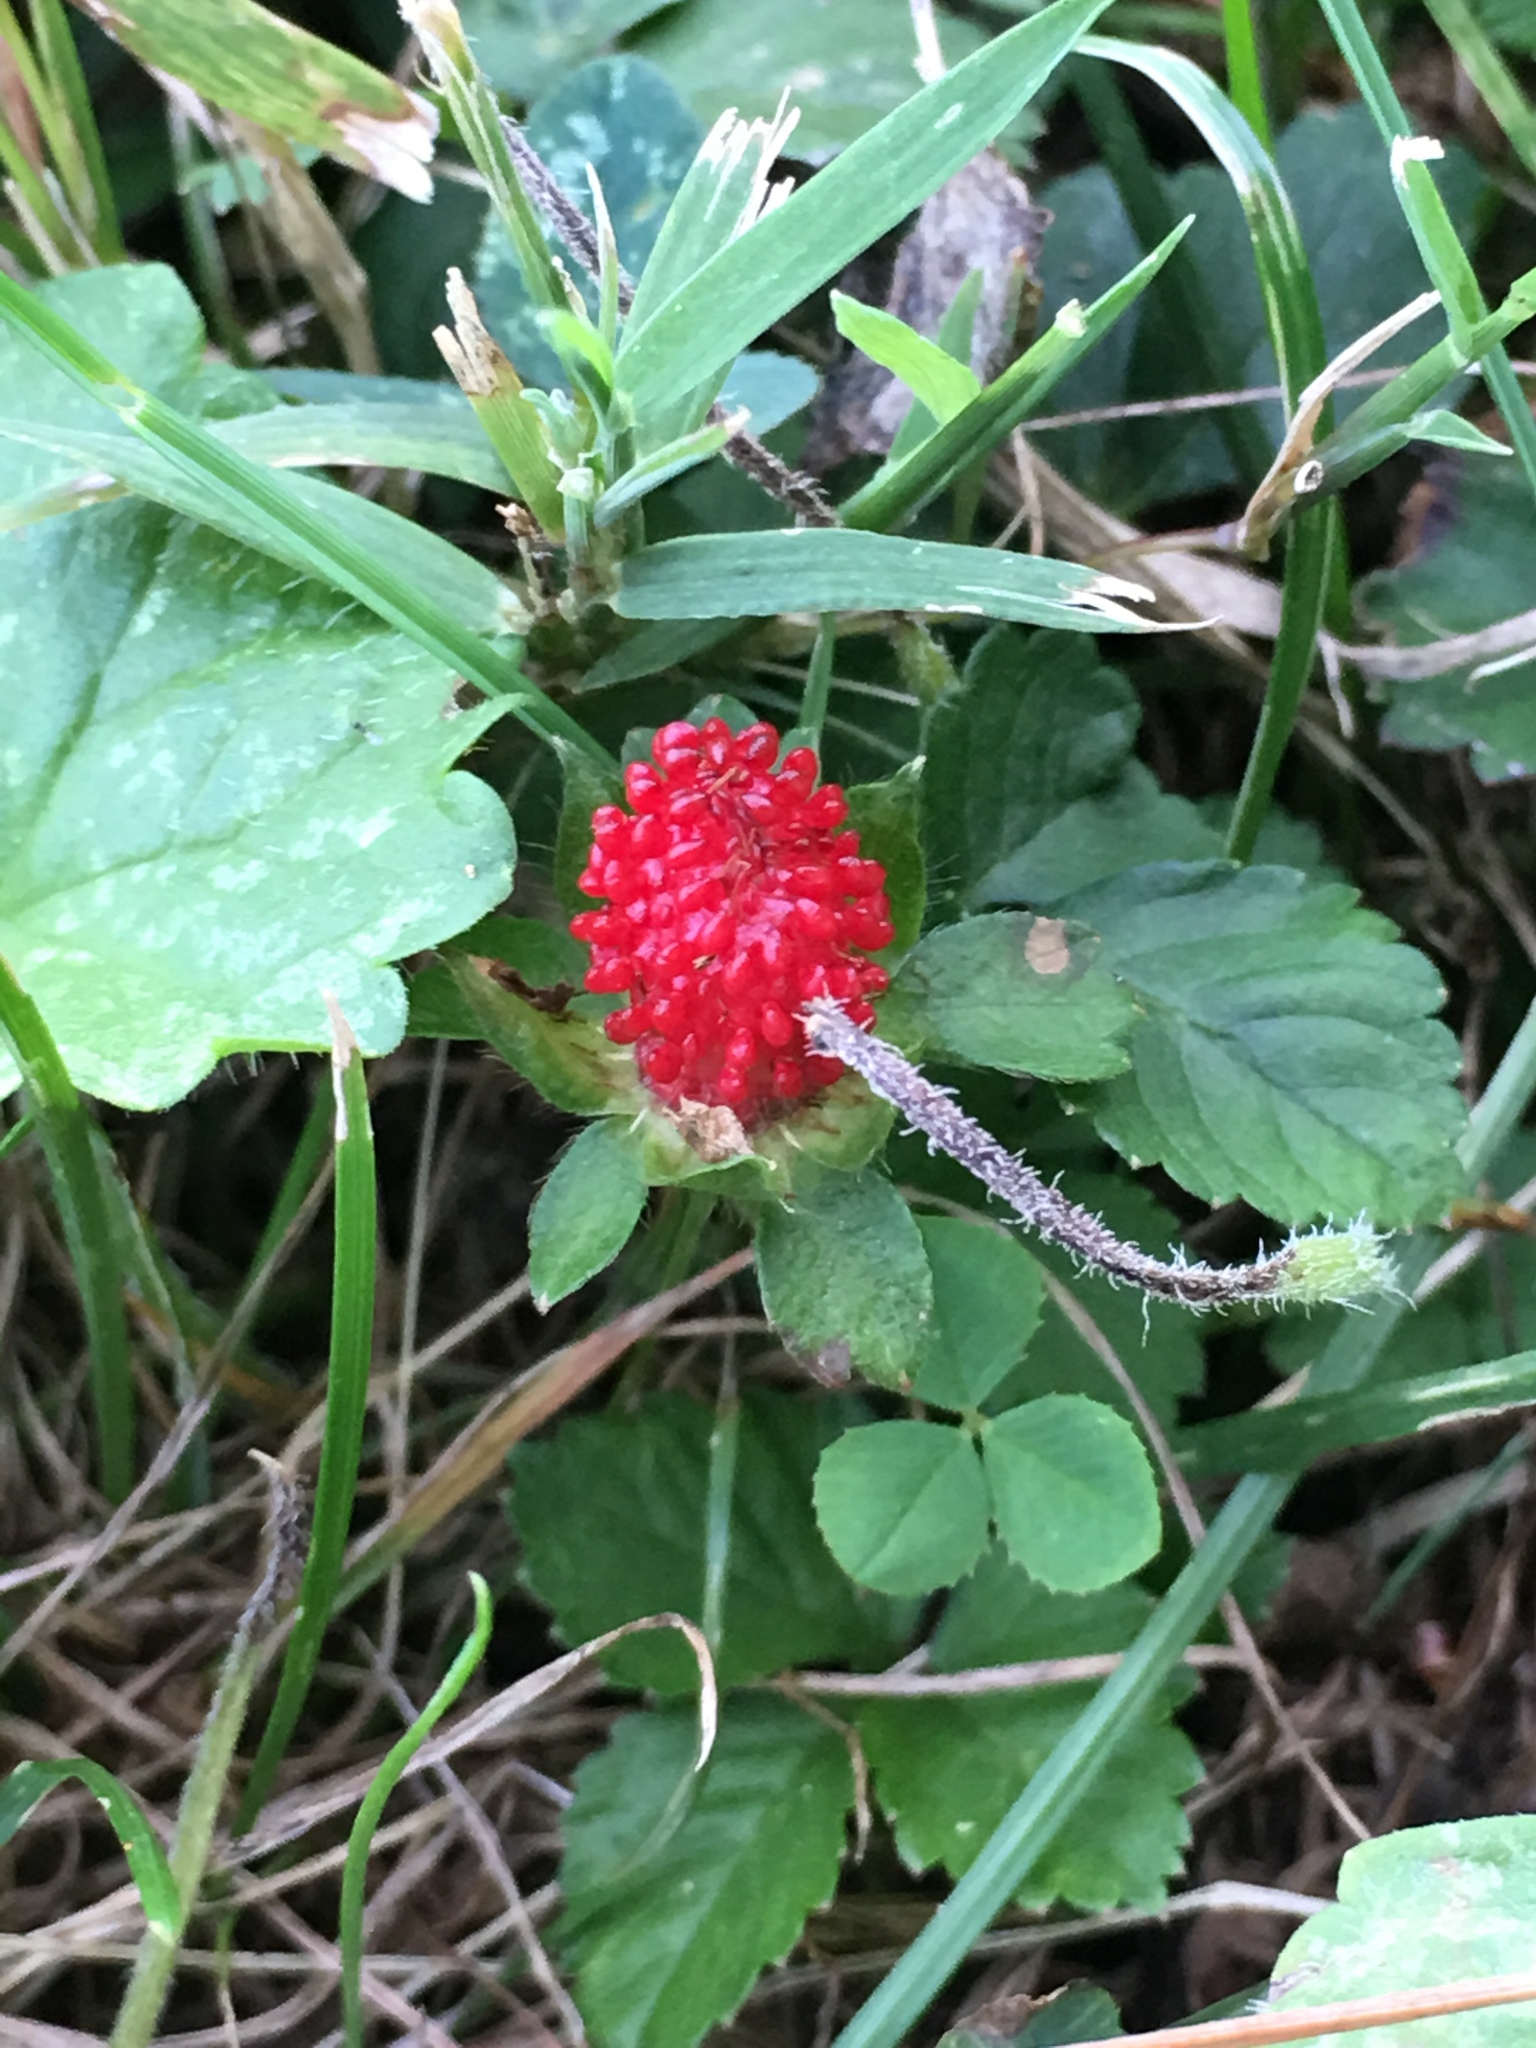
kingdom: Plantae
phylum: Tracheophyta
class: Magnoliopsida
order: Rosales
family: Rosaceae
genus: Potentilla
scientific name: Potentilla indica
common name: Yellow-flowered strawberry
